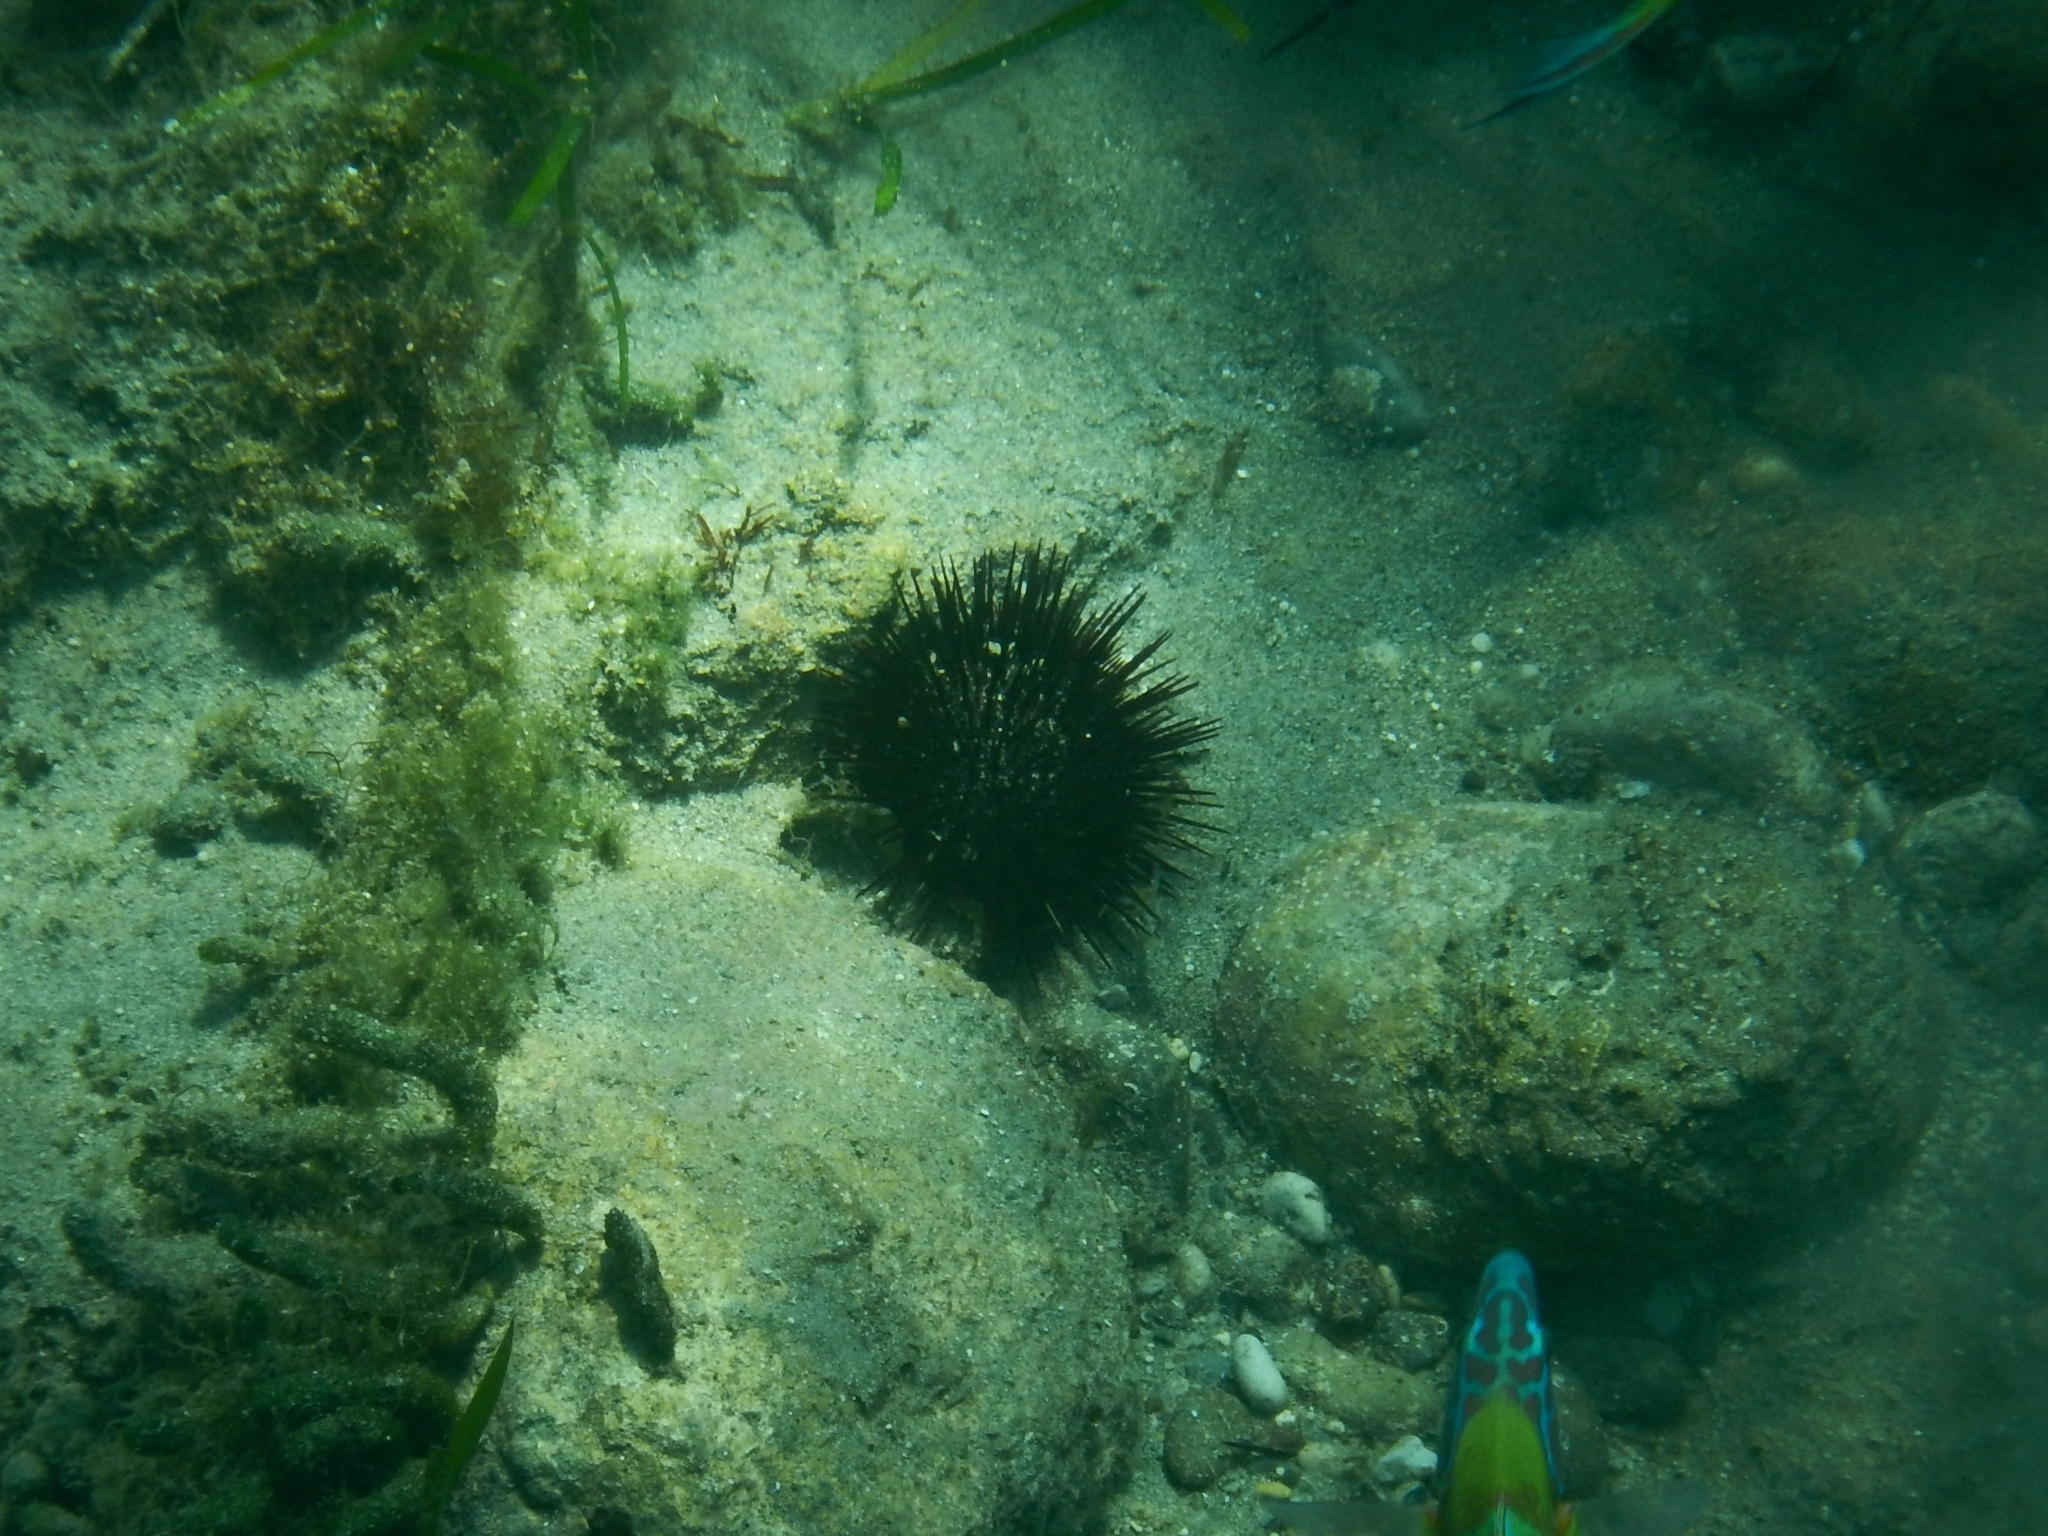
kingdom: Animalia
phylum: Echinodermata
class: Echinoidea
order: Arbacioida
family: Arbaciidae
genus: Arbacia
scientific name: Arbacia lixula
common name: Black sea urchin
